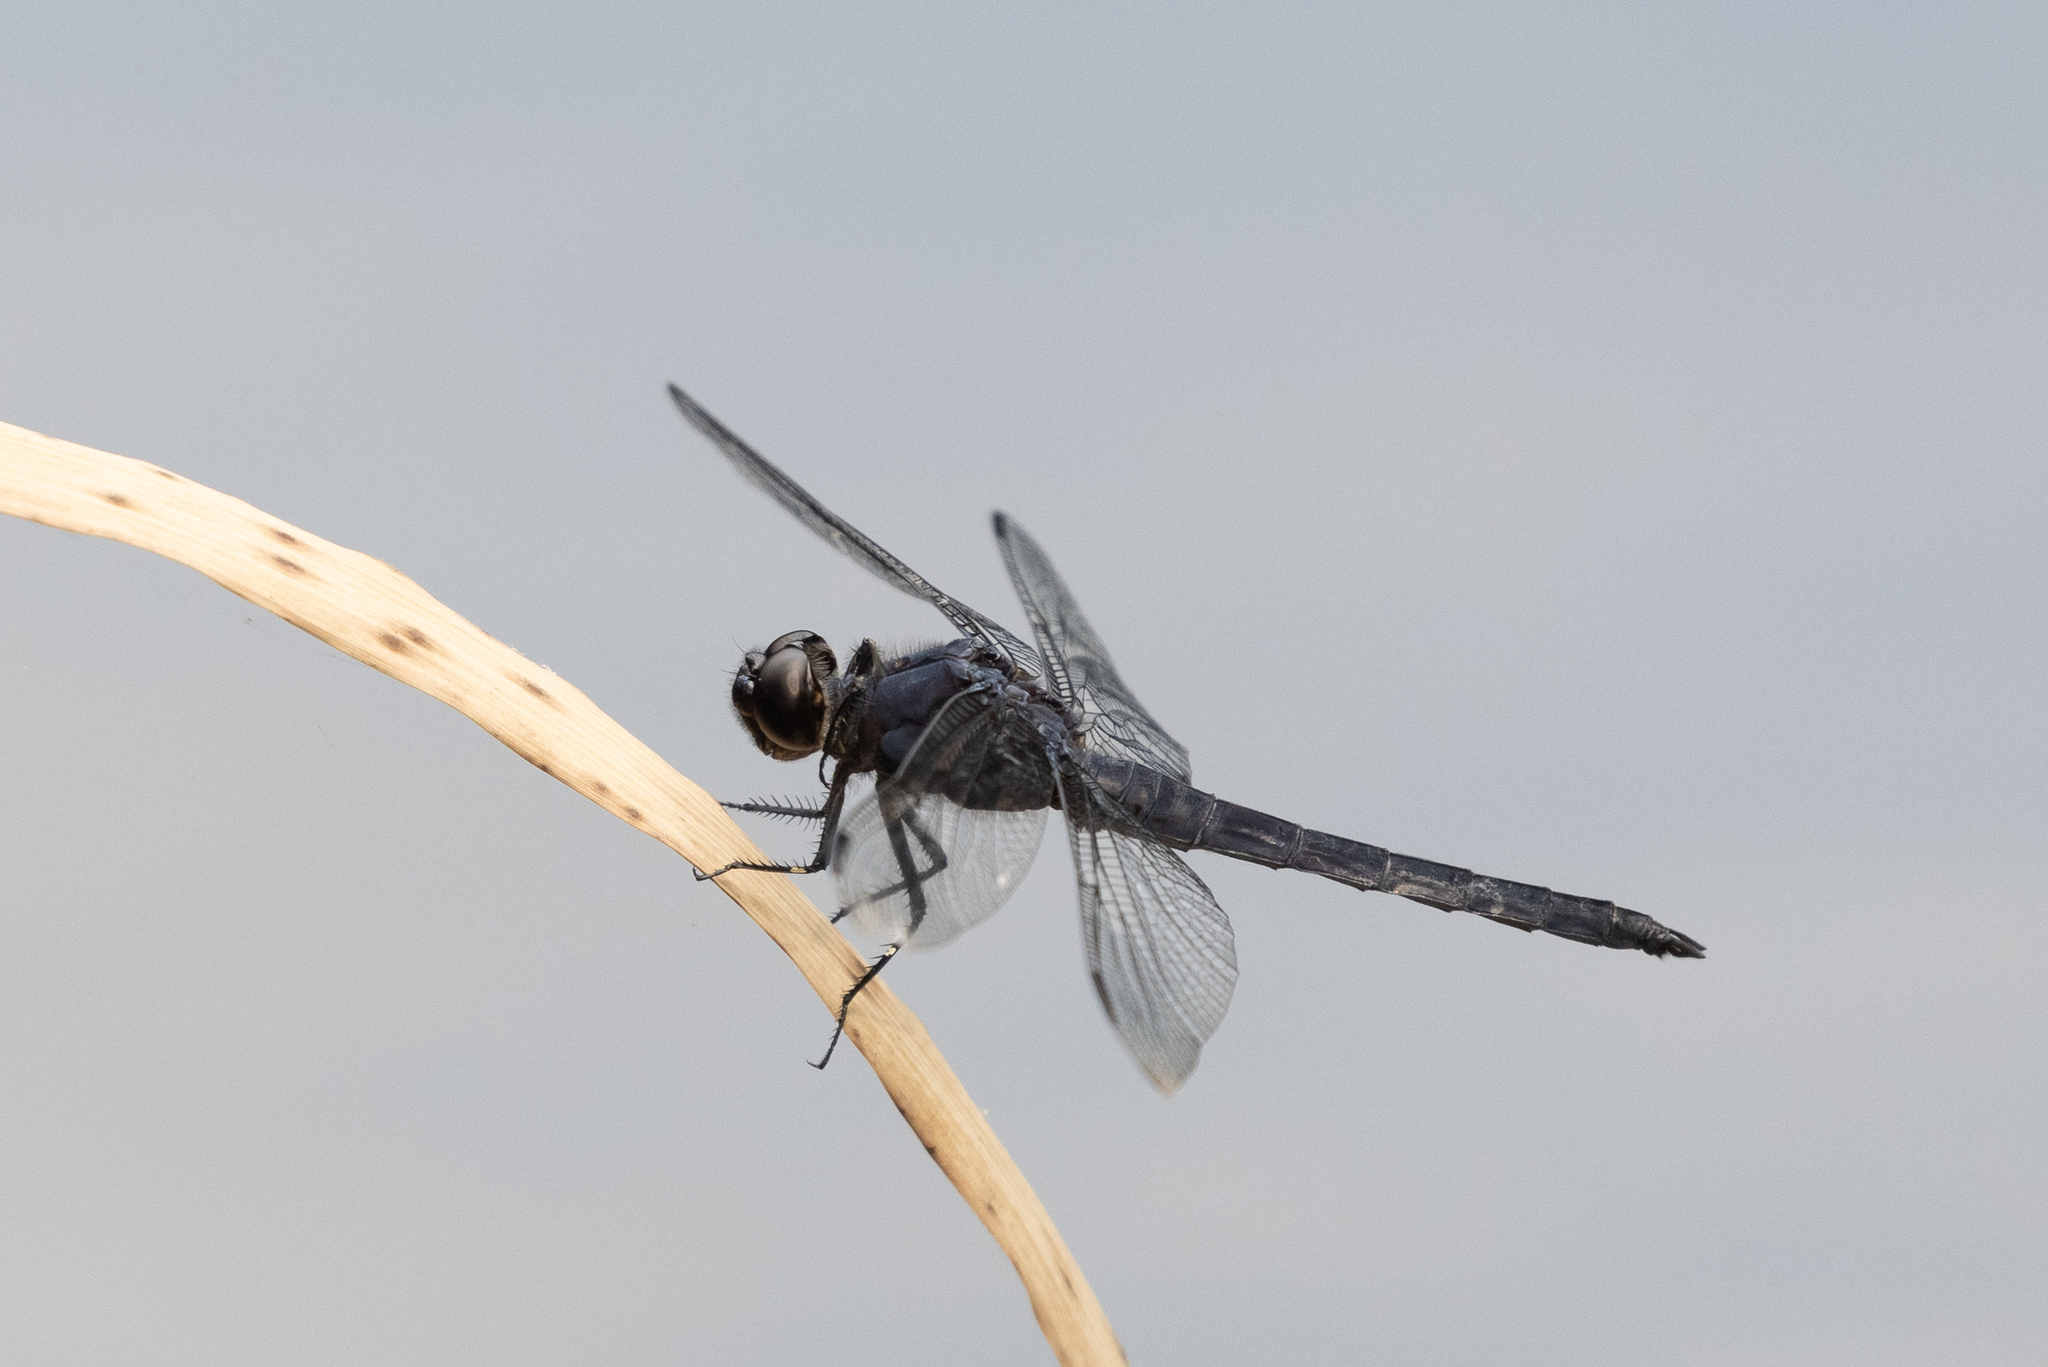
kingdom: Animalia
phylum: Arthropoda
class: Insecta
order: Odonata
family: Libellulidae
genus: Libellula
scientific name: Libellula incesta
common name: Slaty skimmer
